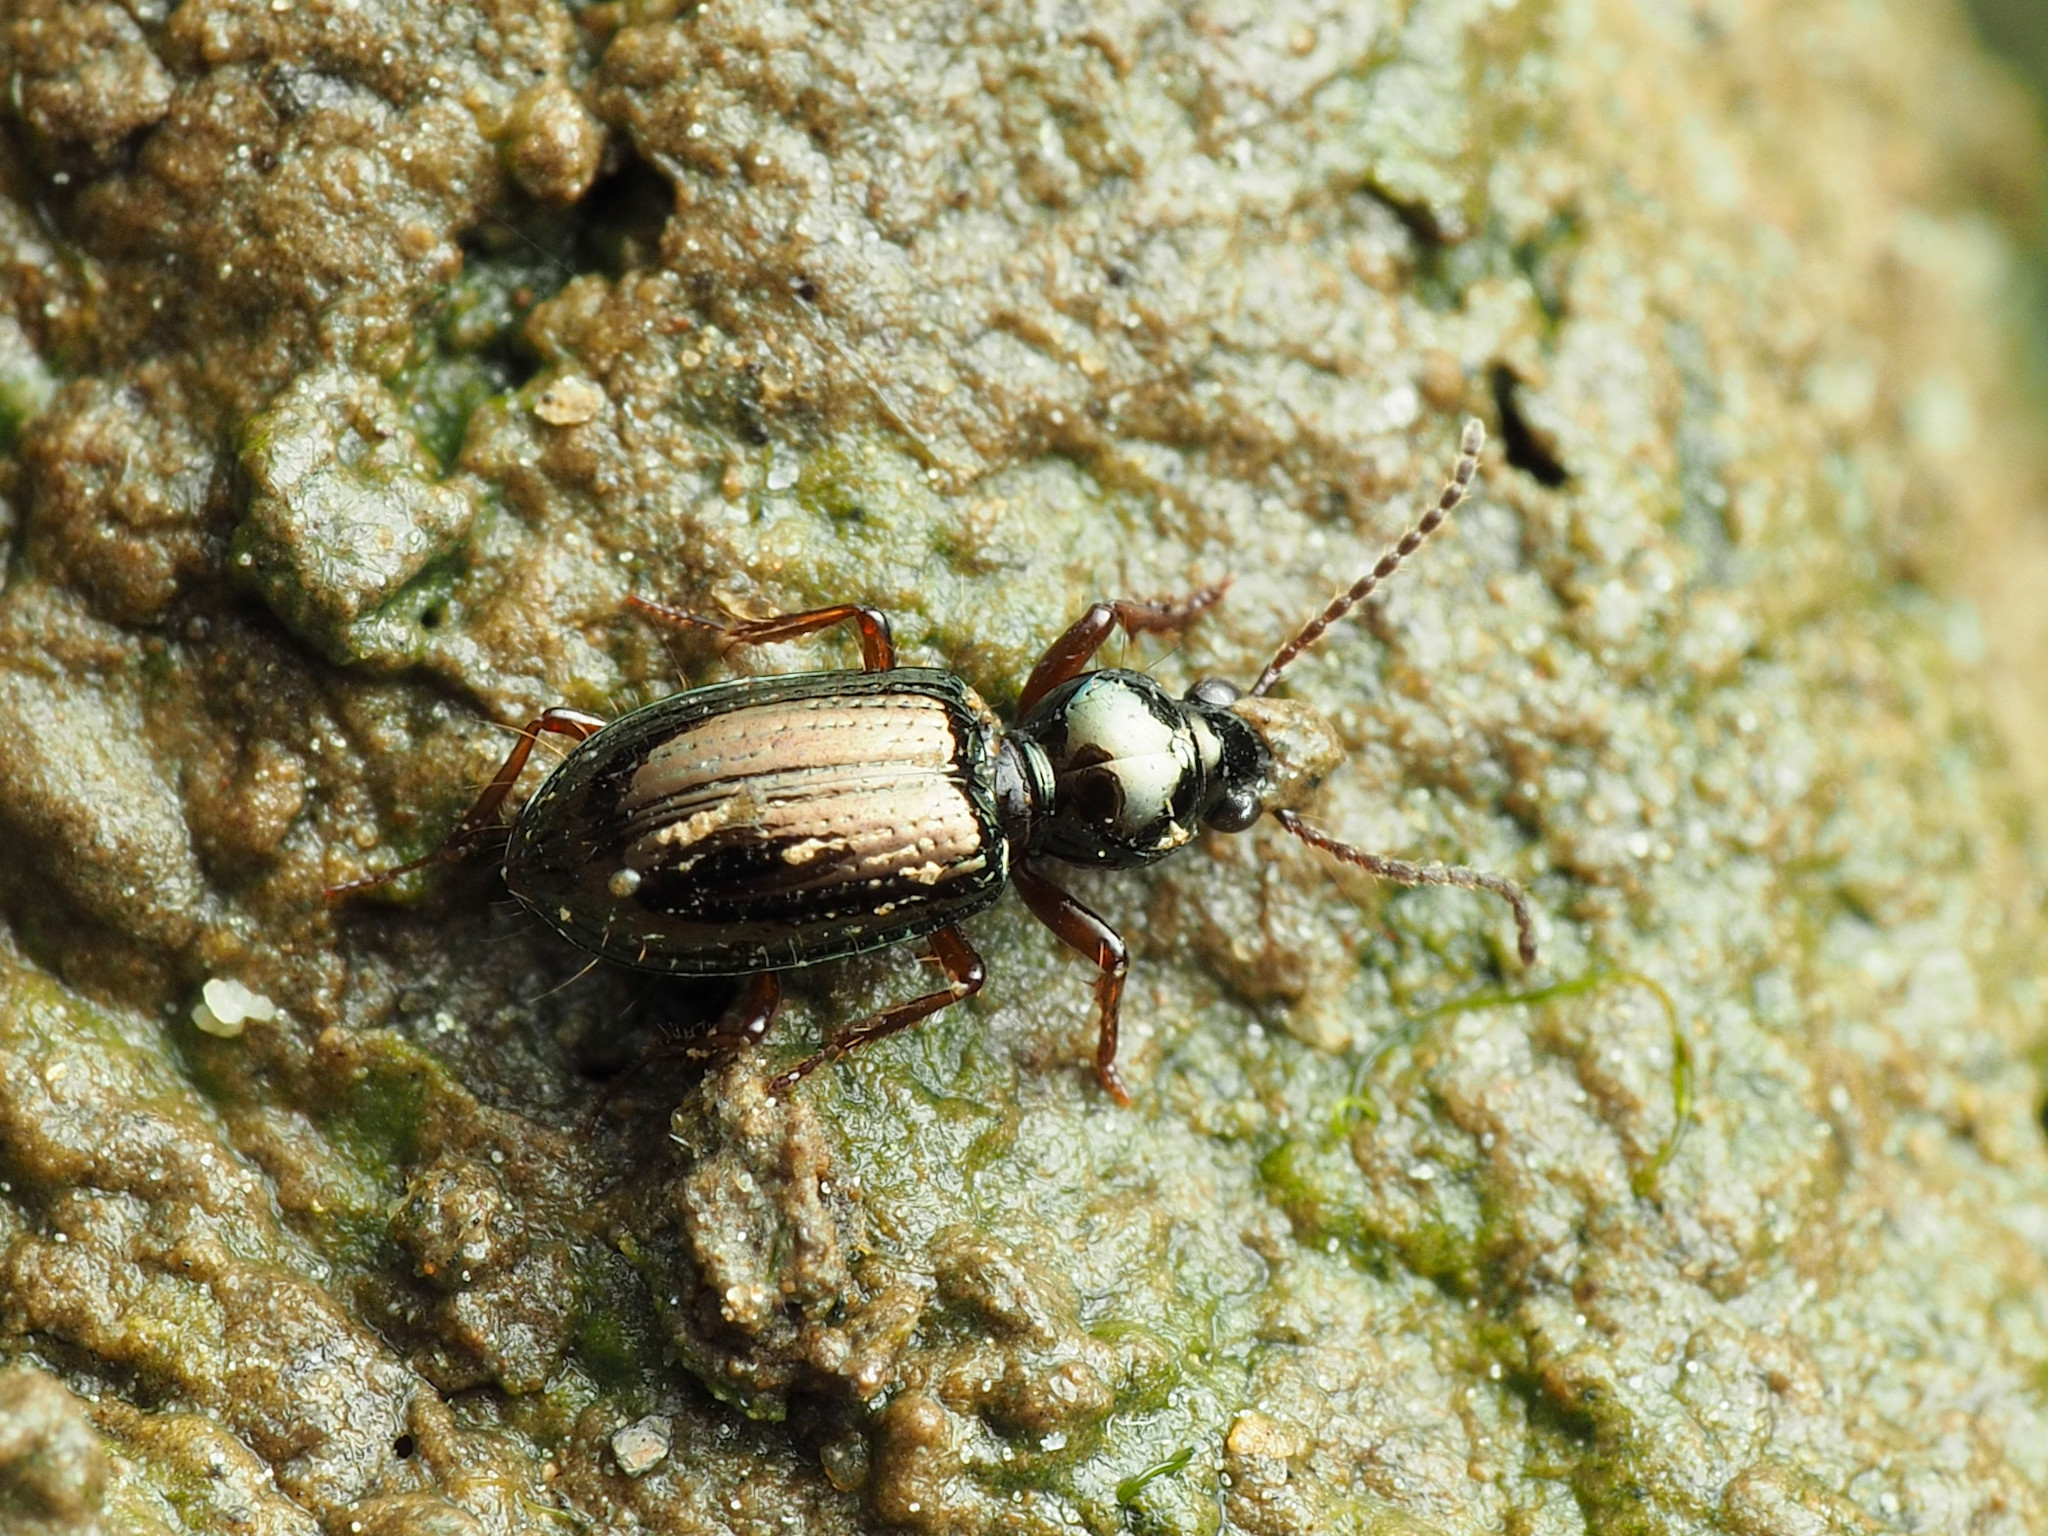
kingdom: Animalia
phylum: Arthropoda
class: Insecta
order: Coleoptera
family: Carabidae
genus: Semiardistomis
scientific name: Semiardistomis viridis
